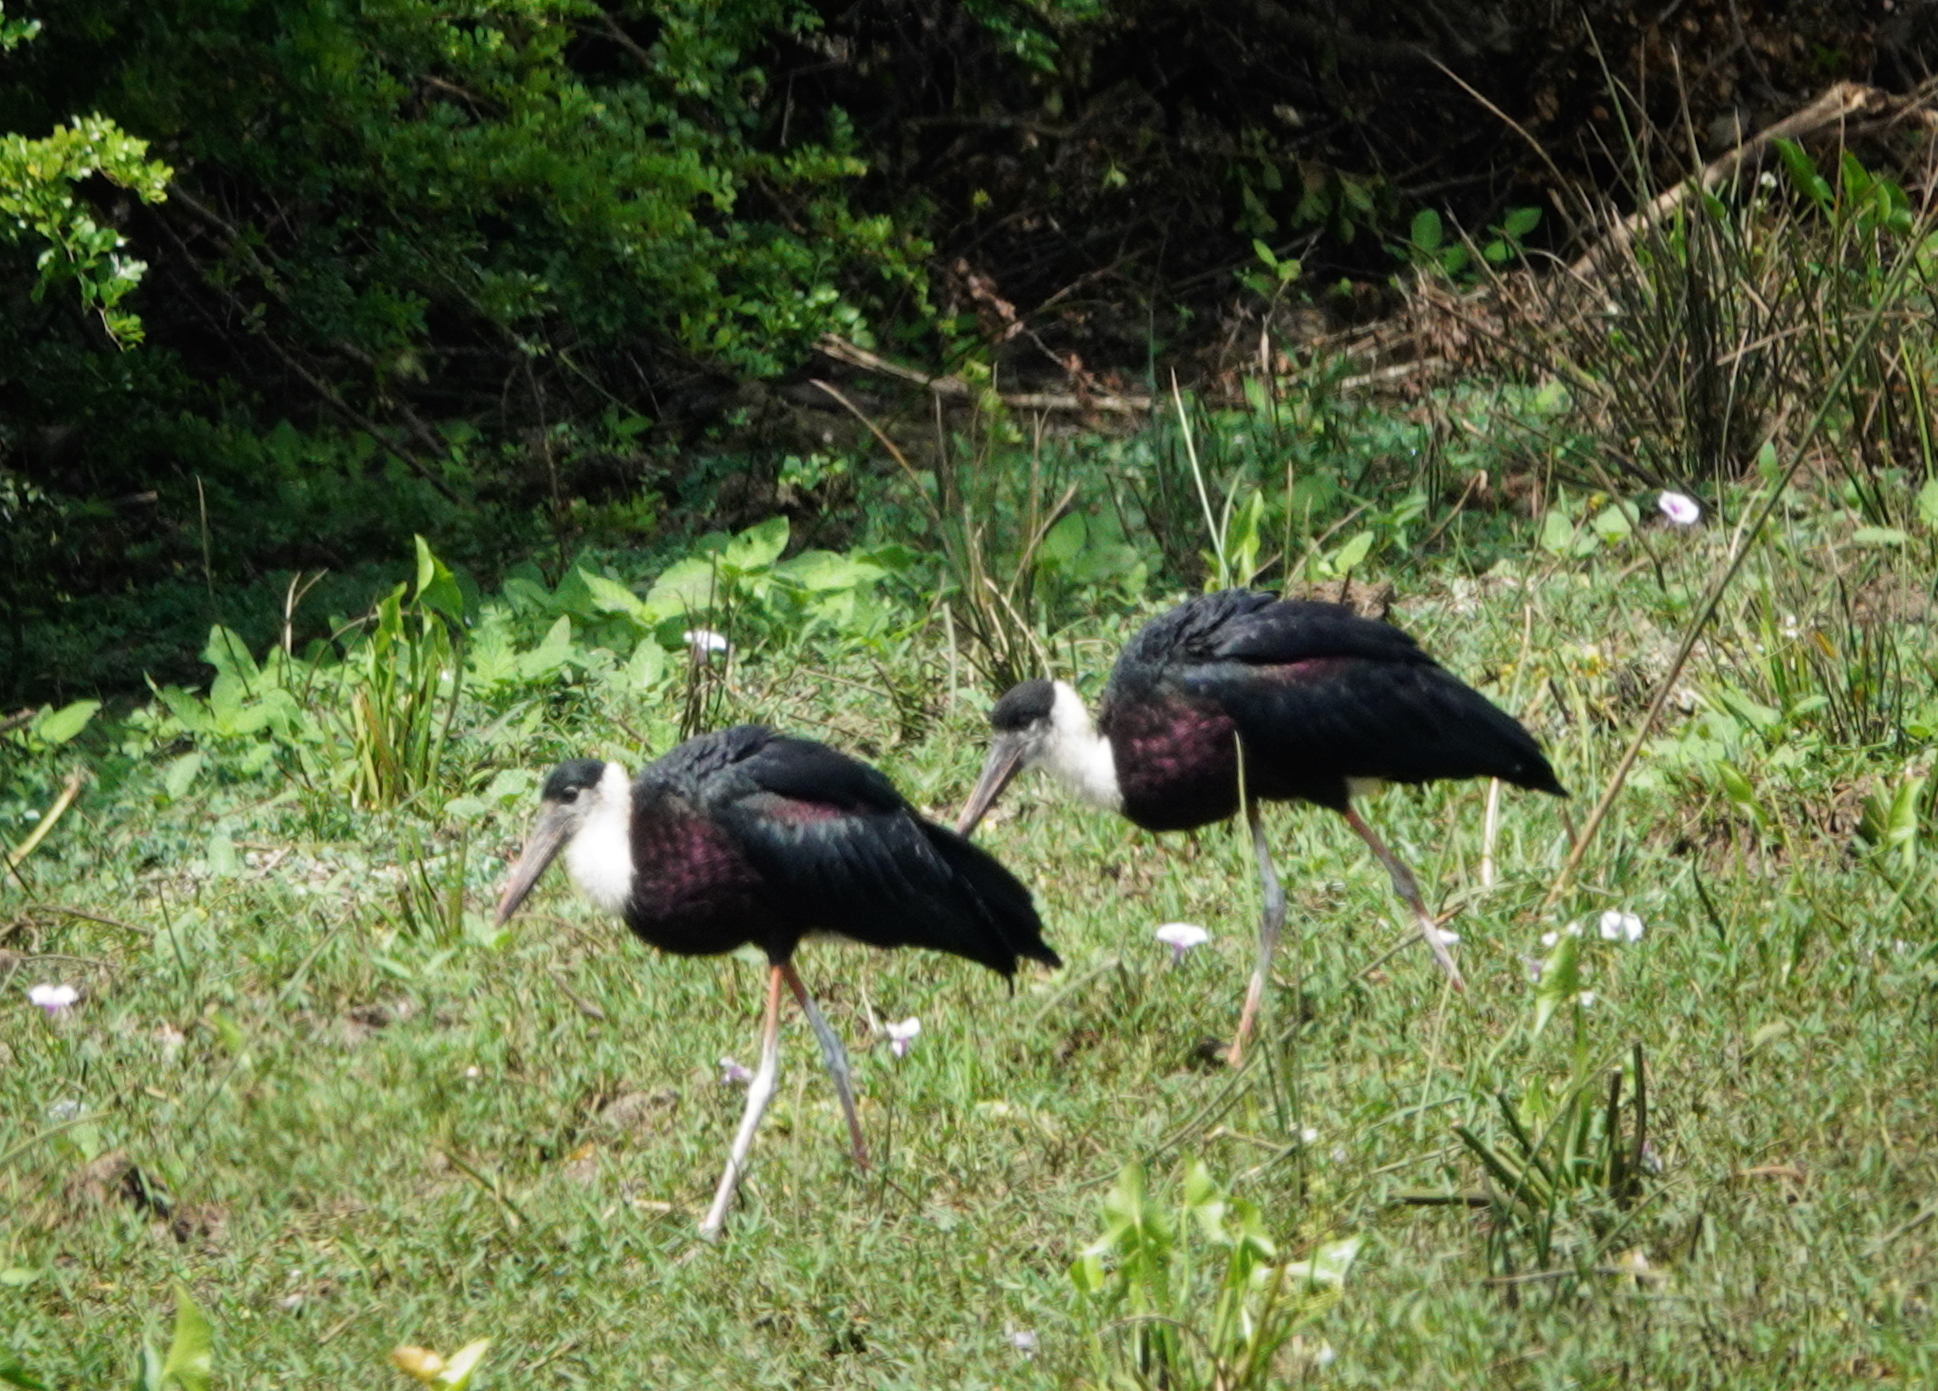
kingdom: Animalia
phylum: Chordata
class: Aves
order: Ciconiiformes
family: Ciconiidae
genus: Ciconia
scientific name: Ciconia episcopus
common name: Woolly-necked stork
